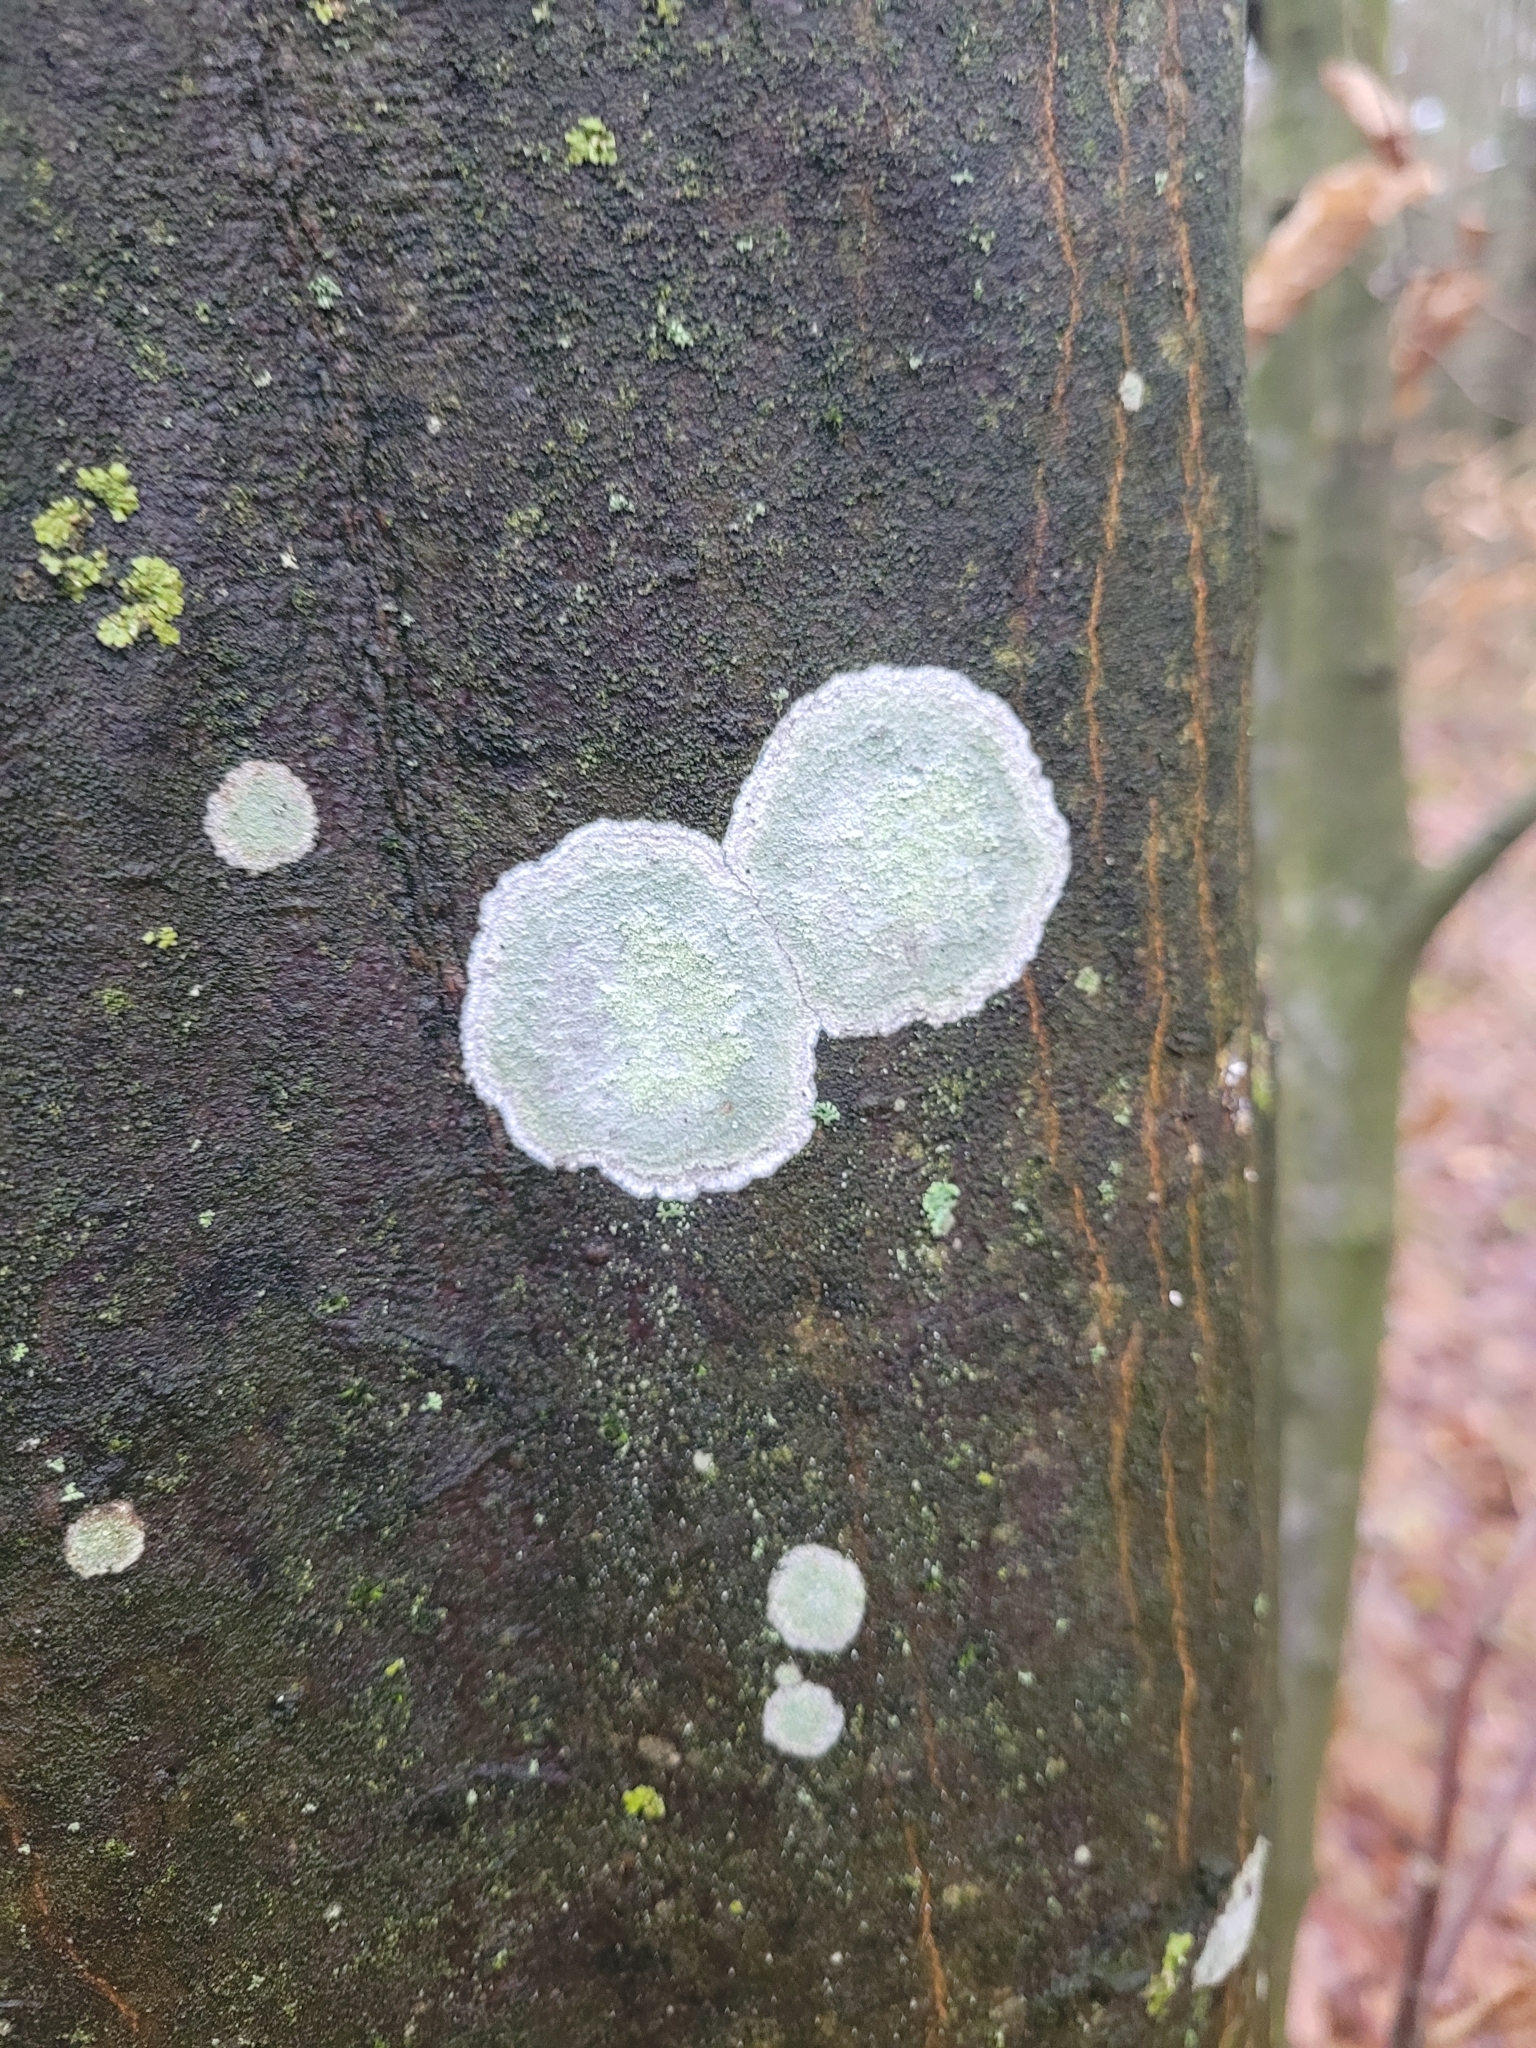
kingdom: Fungi
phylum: Ascomycota
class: Lecanoromycetes
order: Ostropales
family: Phlyctidaceae
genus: Phlyctis
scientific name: Phlyctis argena
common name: Whitewash lichen
